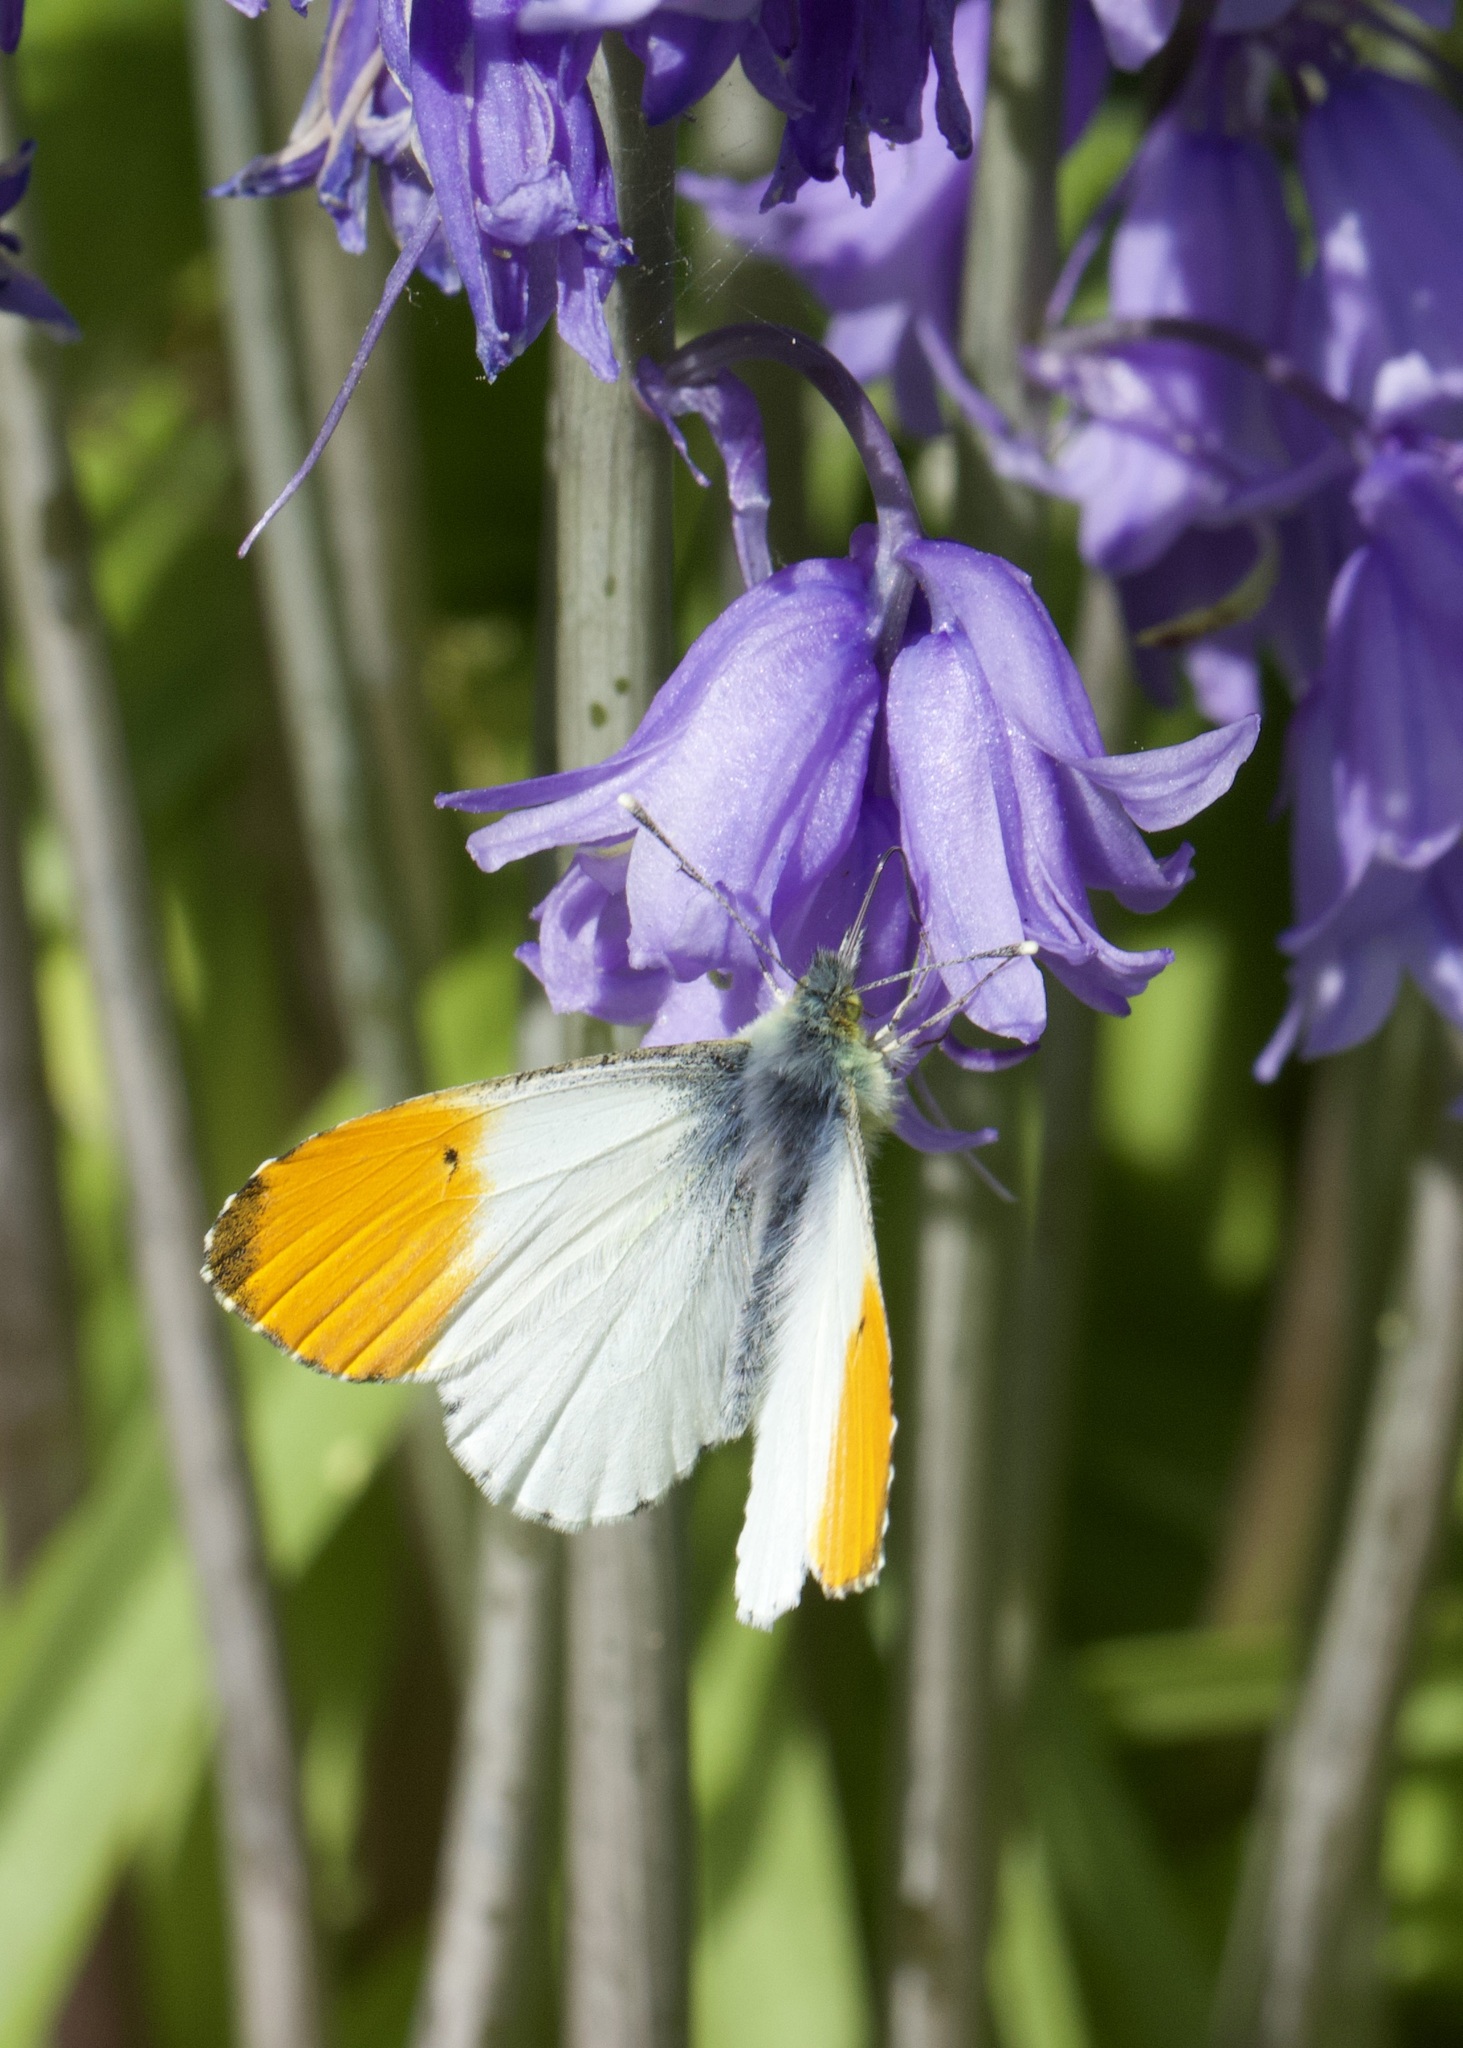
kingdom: Animalia
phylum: Arthropoda
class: Insecta
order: Lepidoptera
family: Pieridae
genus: Anthocharis
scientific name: Anthocharis cardamines
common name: Orange-tip
